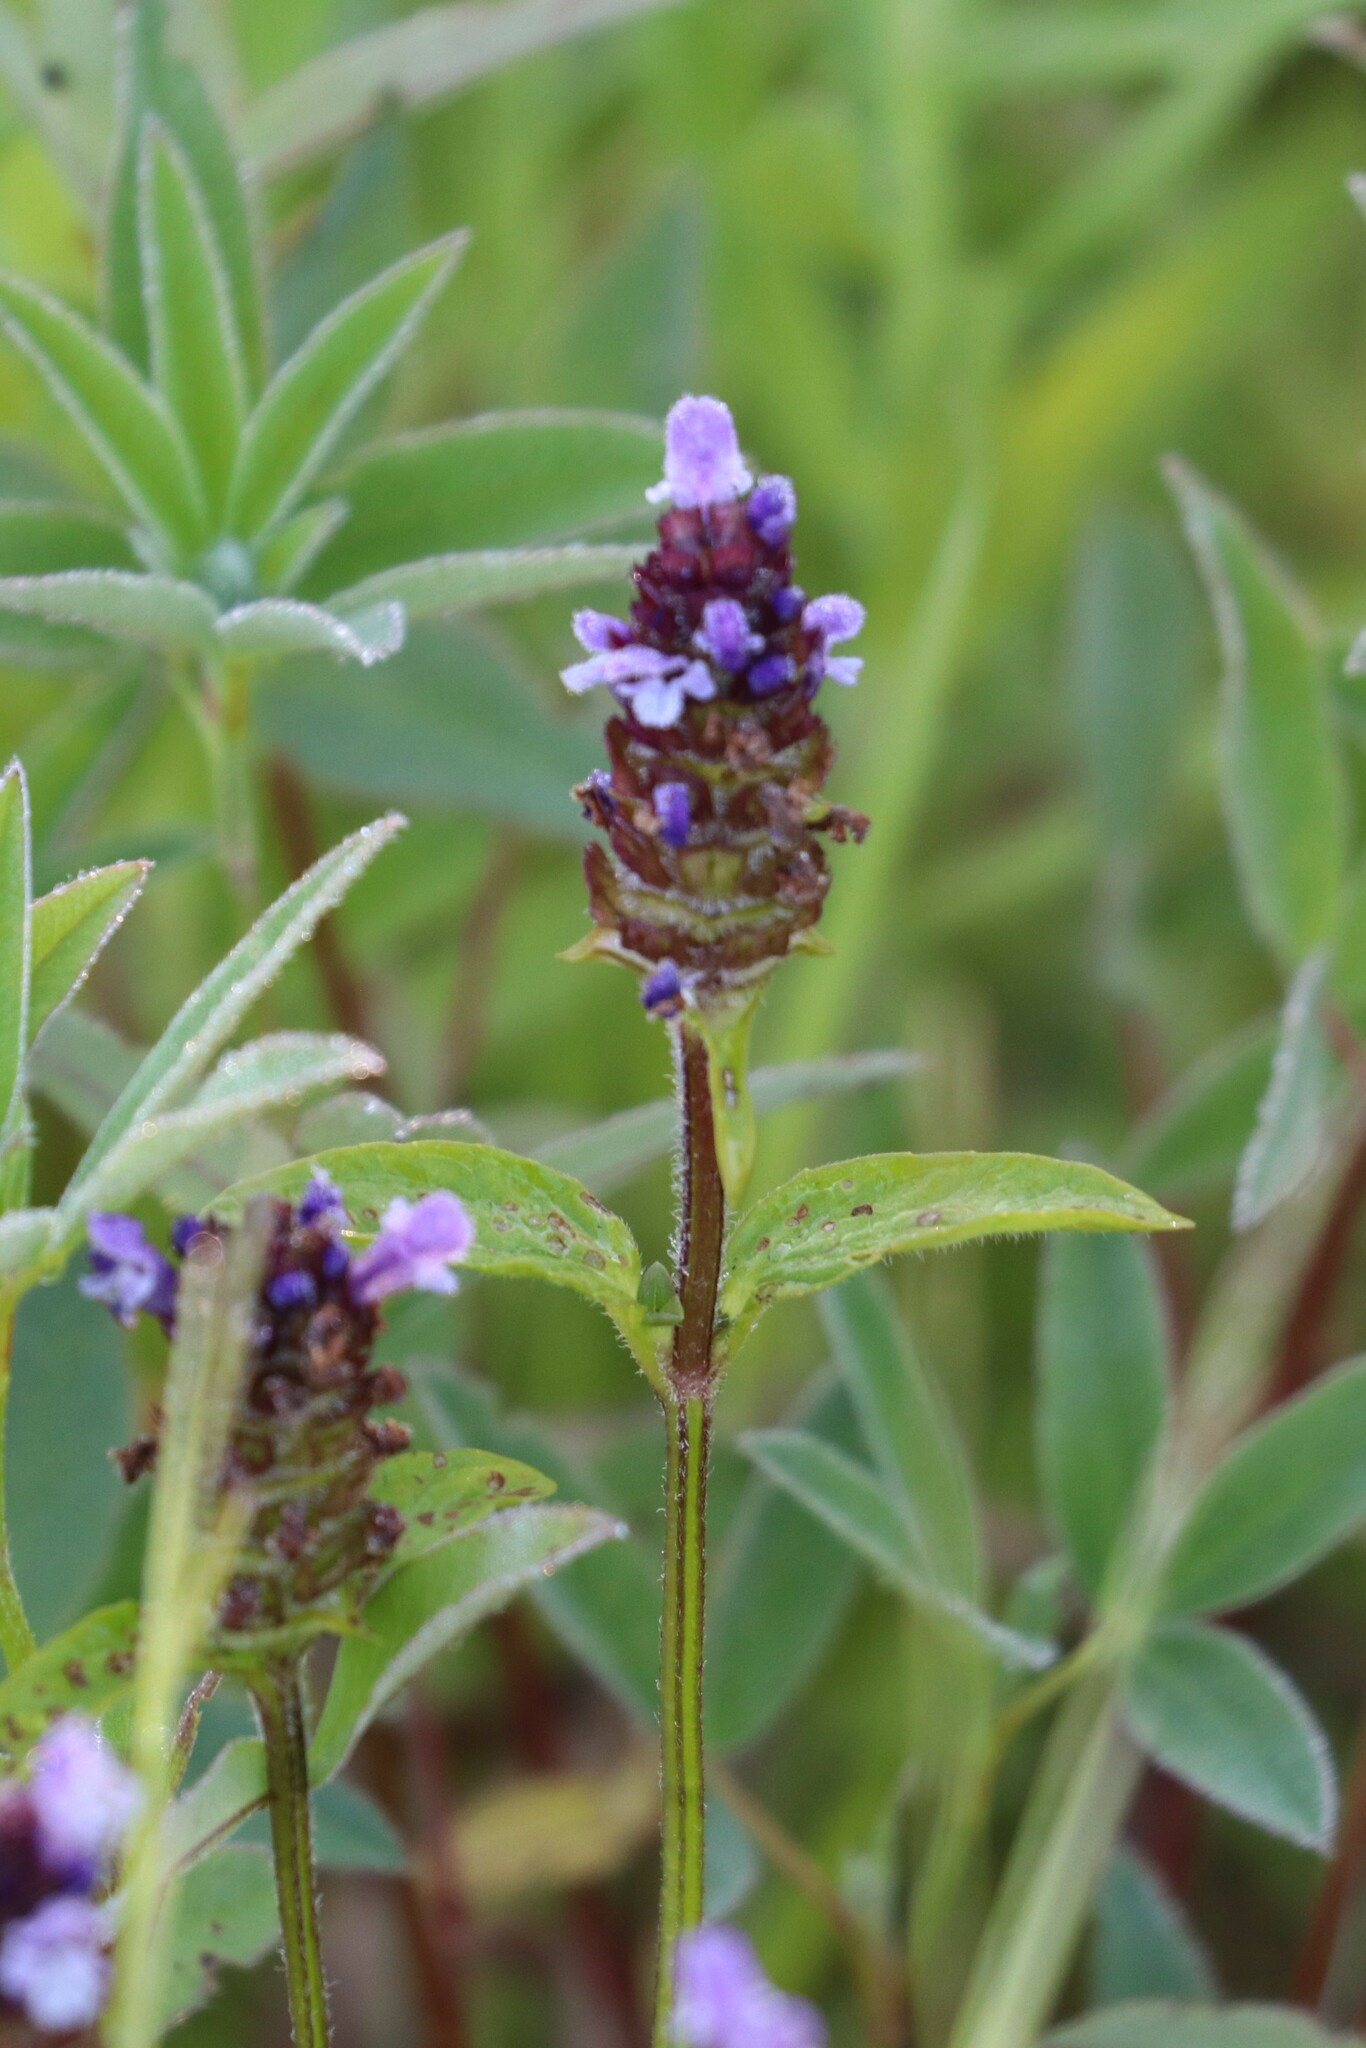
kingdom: Plantae
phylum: Tracheophyta
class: Magnoliopsida
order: Lamiales
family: Lamiaceae
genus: Prunella
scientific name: Prunella vulgaris
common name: Heal-all
